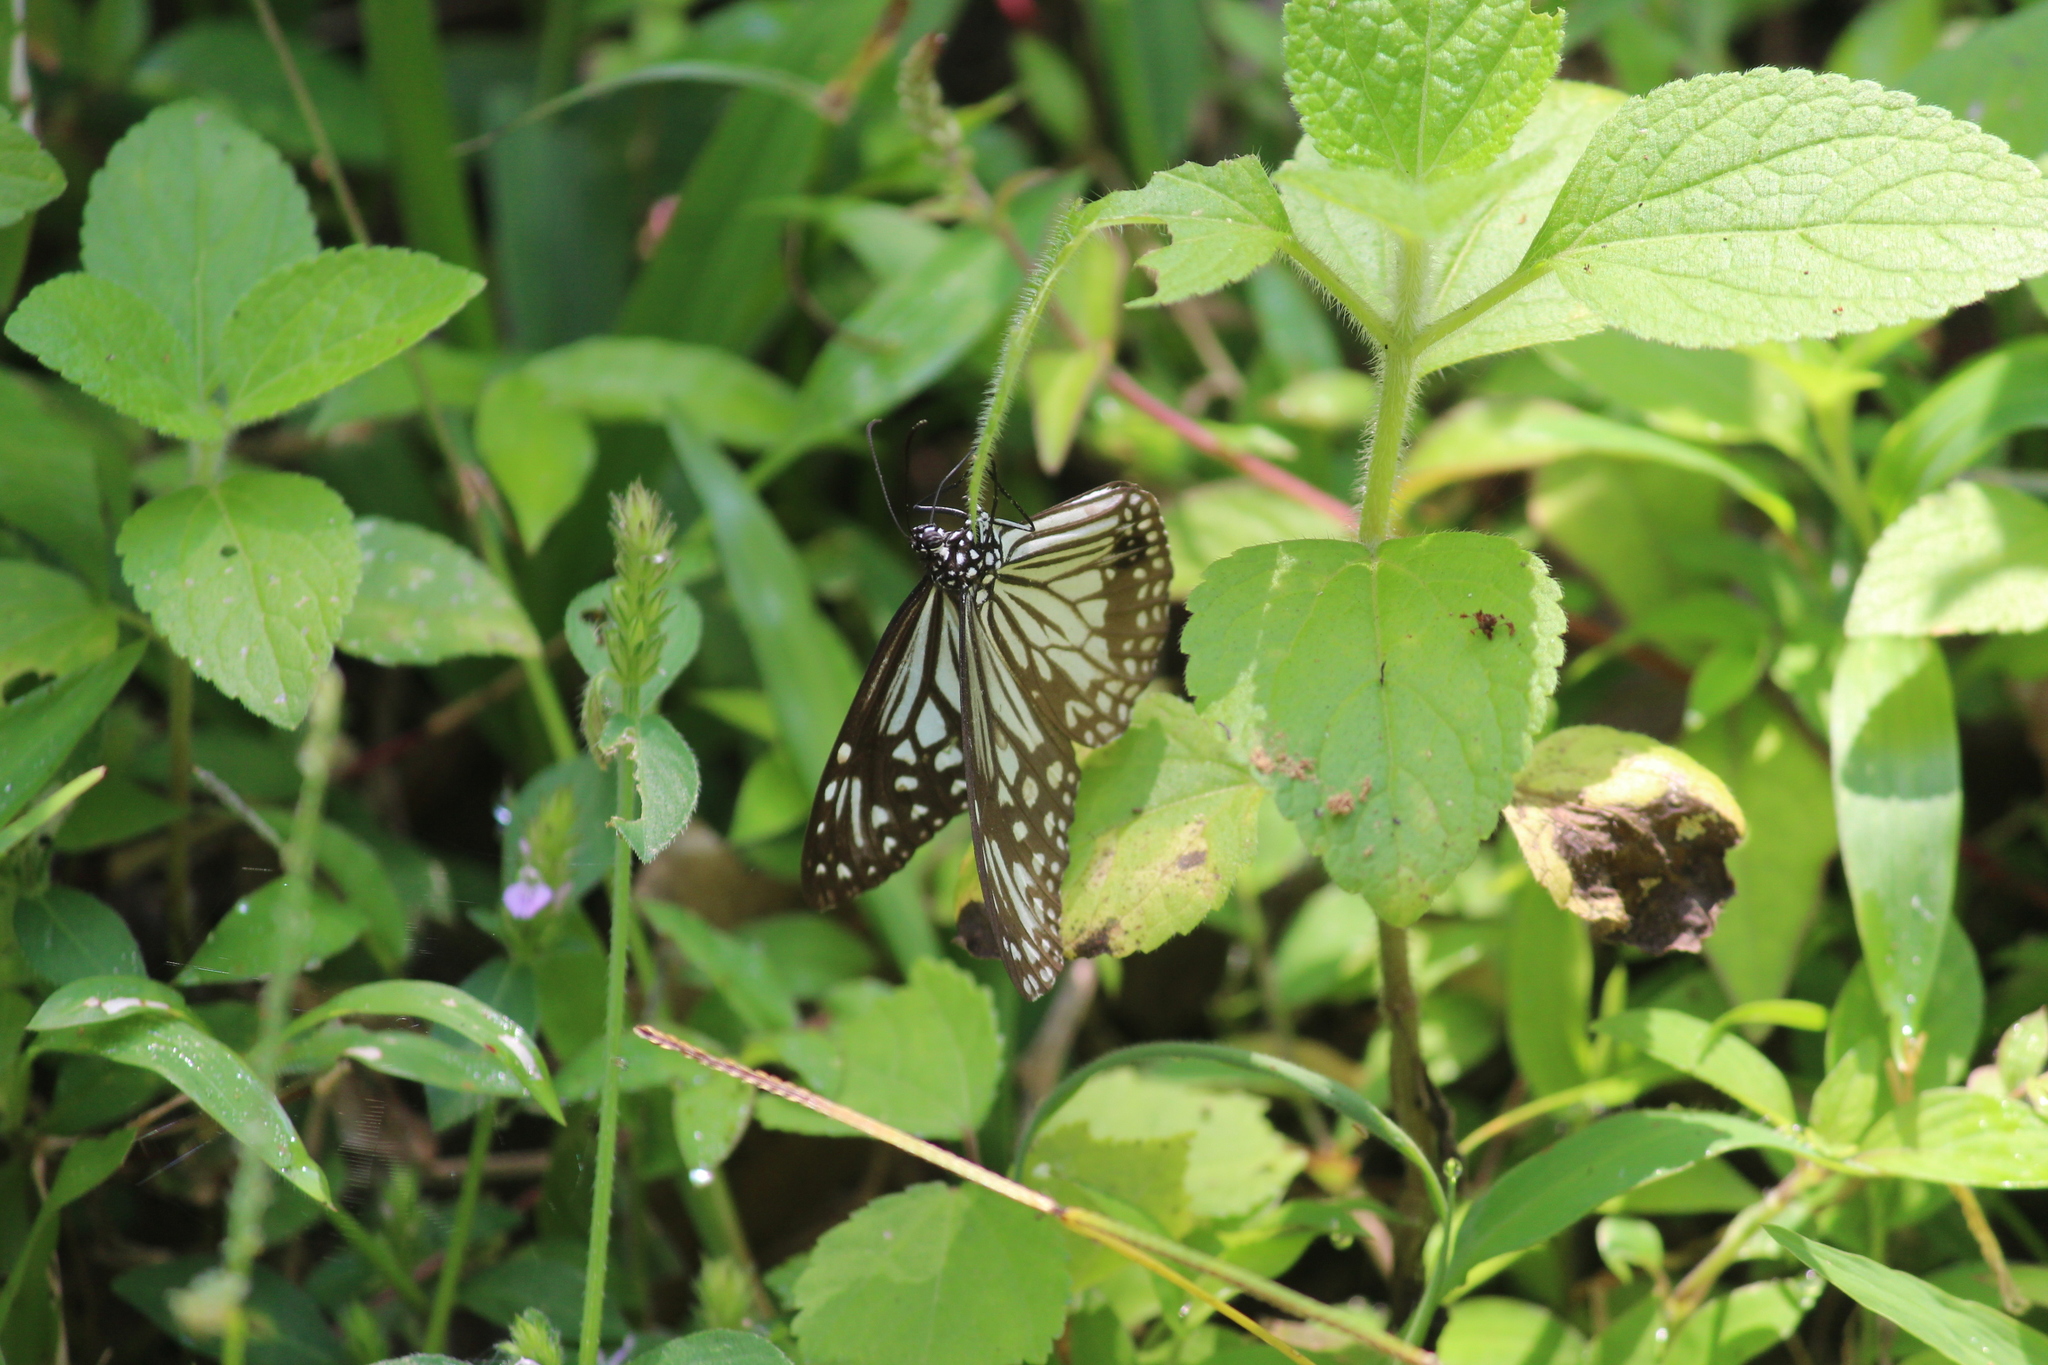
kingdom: Animalia
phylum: Arthropoda
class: Insecta
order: Lepidoptera
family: Nymphalidae
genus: Parantica
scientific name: Parantica aglea
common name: Glassy tiger
